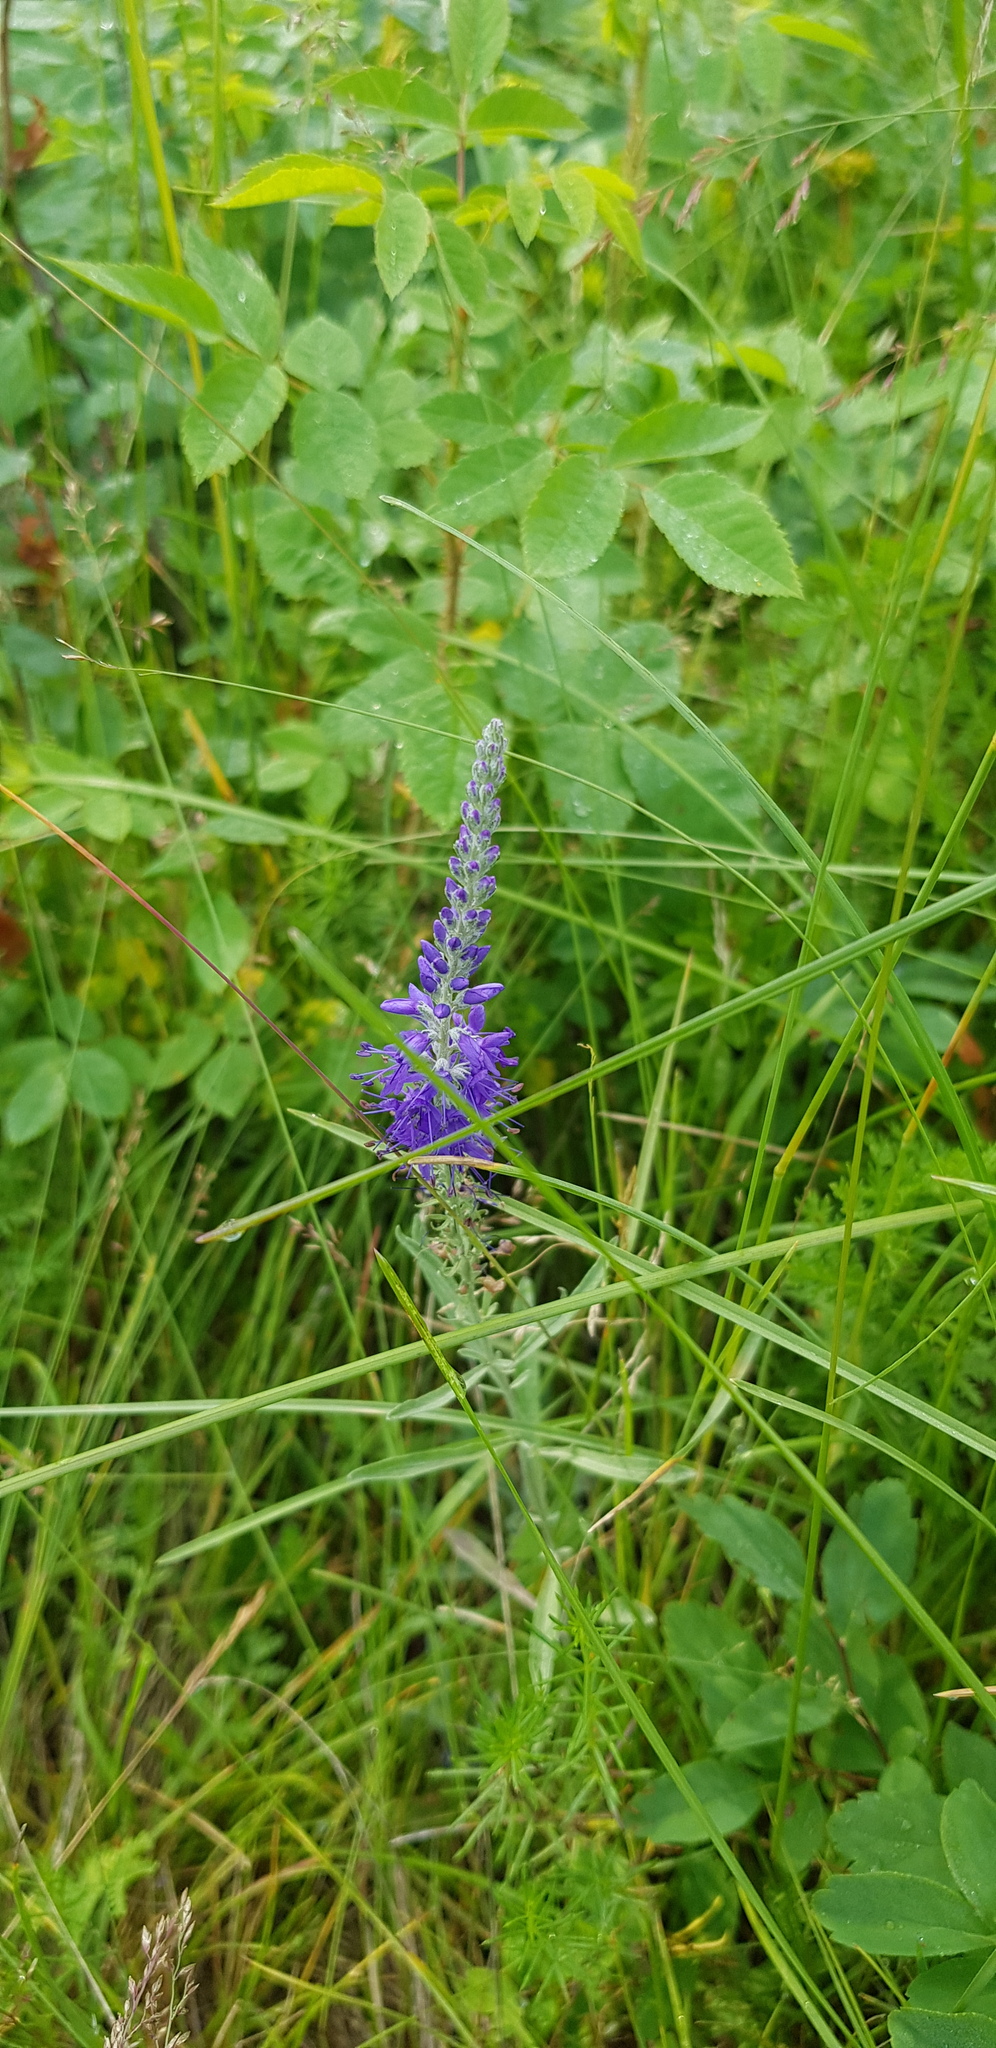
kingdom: Plantae
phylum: Tracheophyta
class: Magnoliopsida
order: Lamiales
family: Plantaginaceae
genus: Veronica
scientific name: Veronica incana
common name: Silver speedwell
